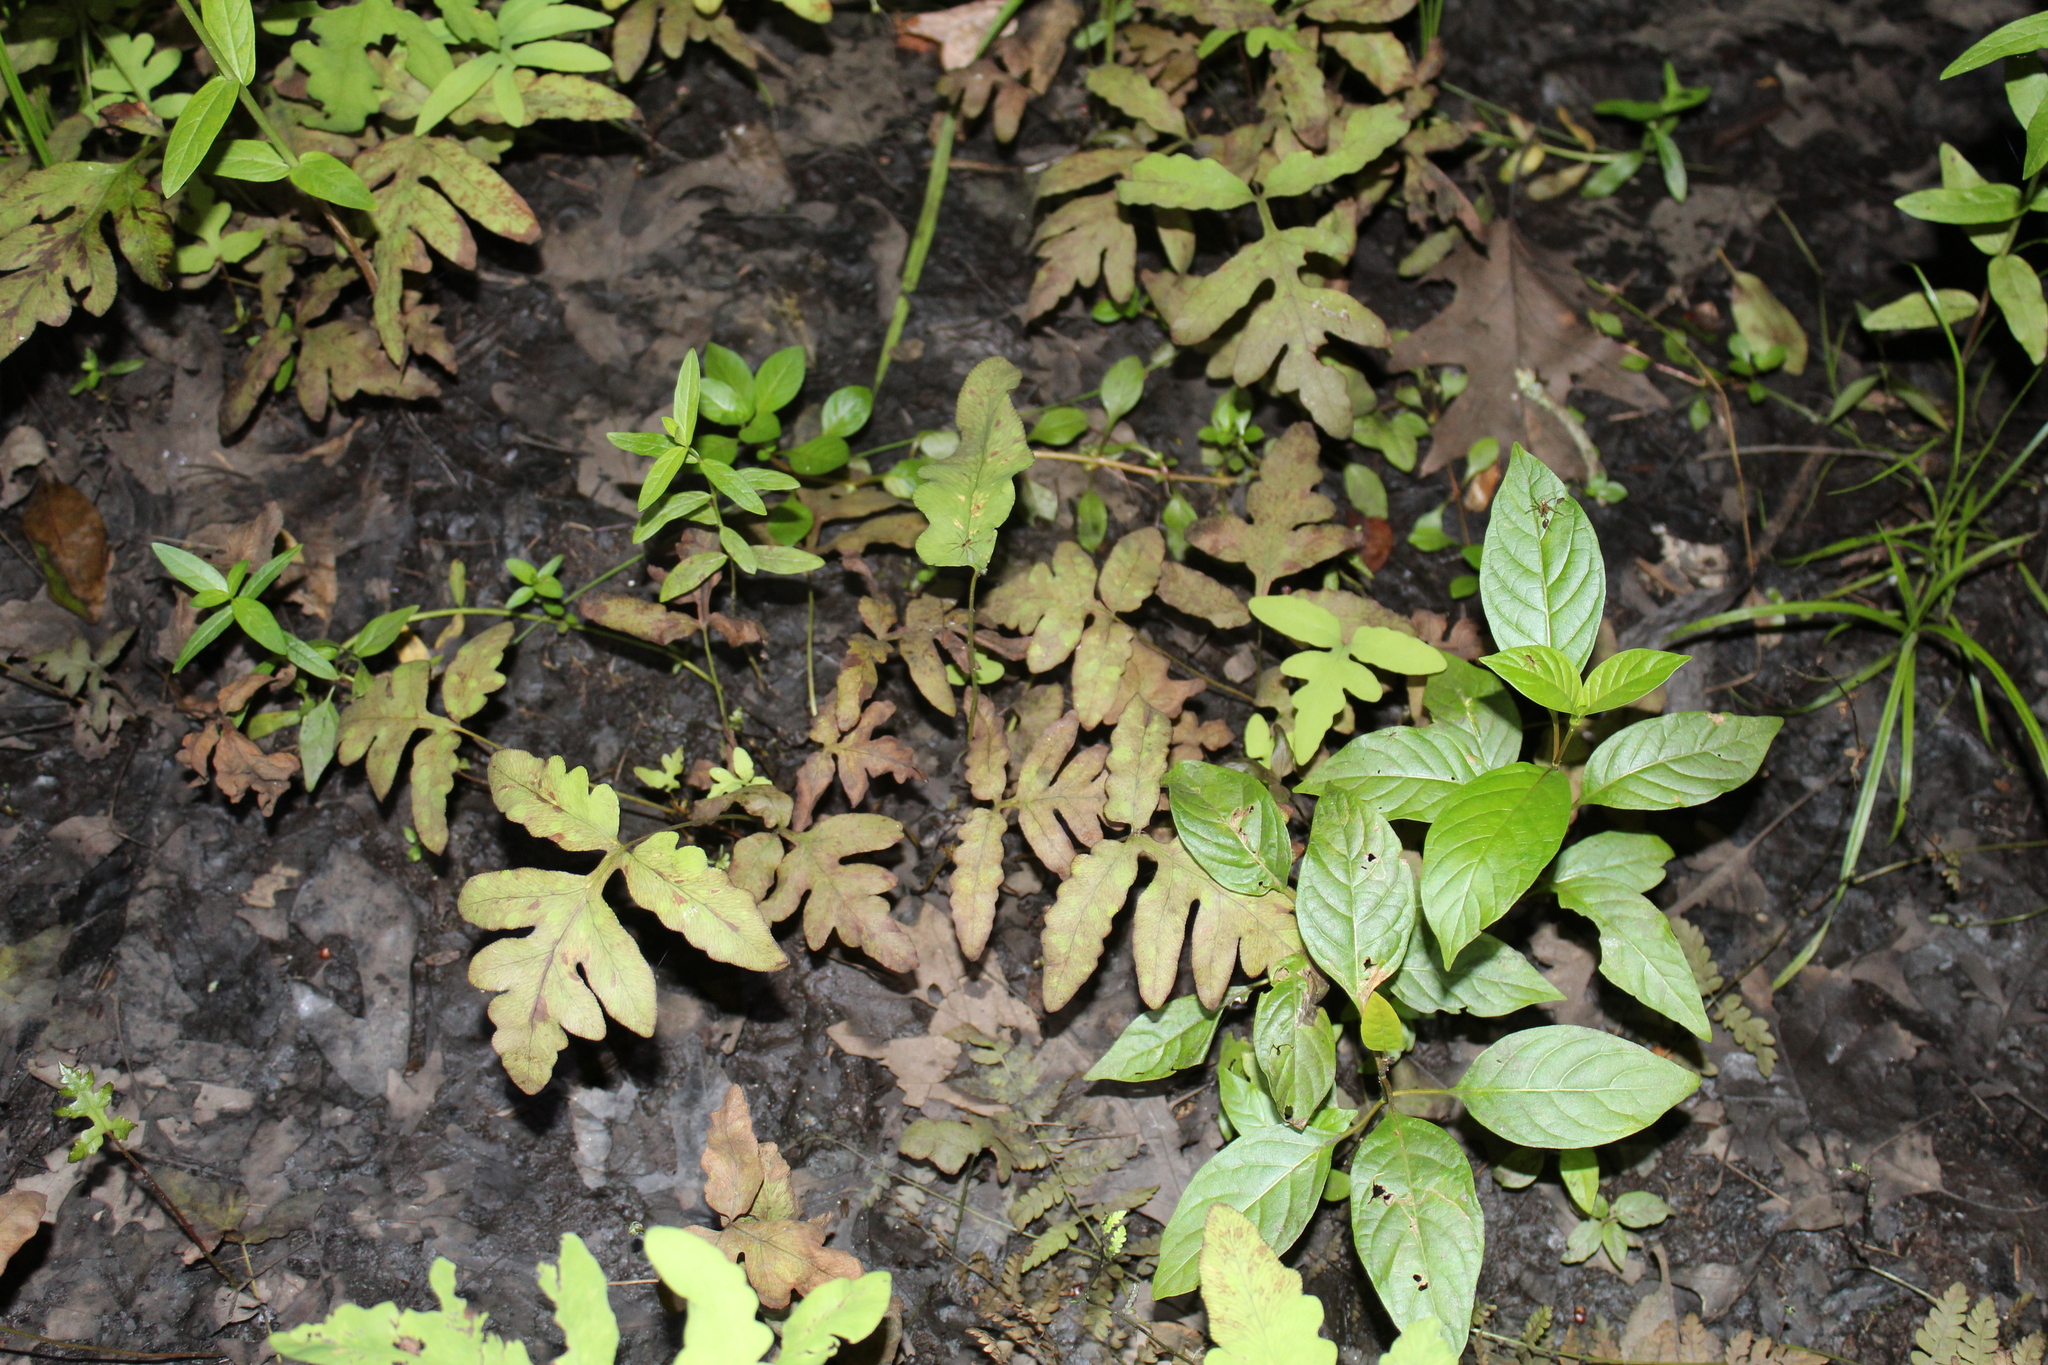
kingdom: Plantae
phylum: Tracheophyta
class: Polypodiopsida
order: Polypodiales
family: Onocleaceae
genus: Onoclea
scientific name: Onoclea sensibilis
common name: Sensitive fern
